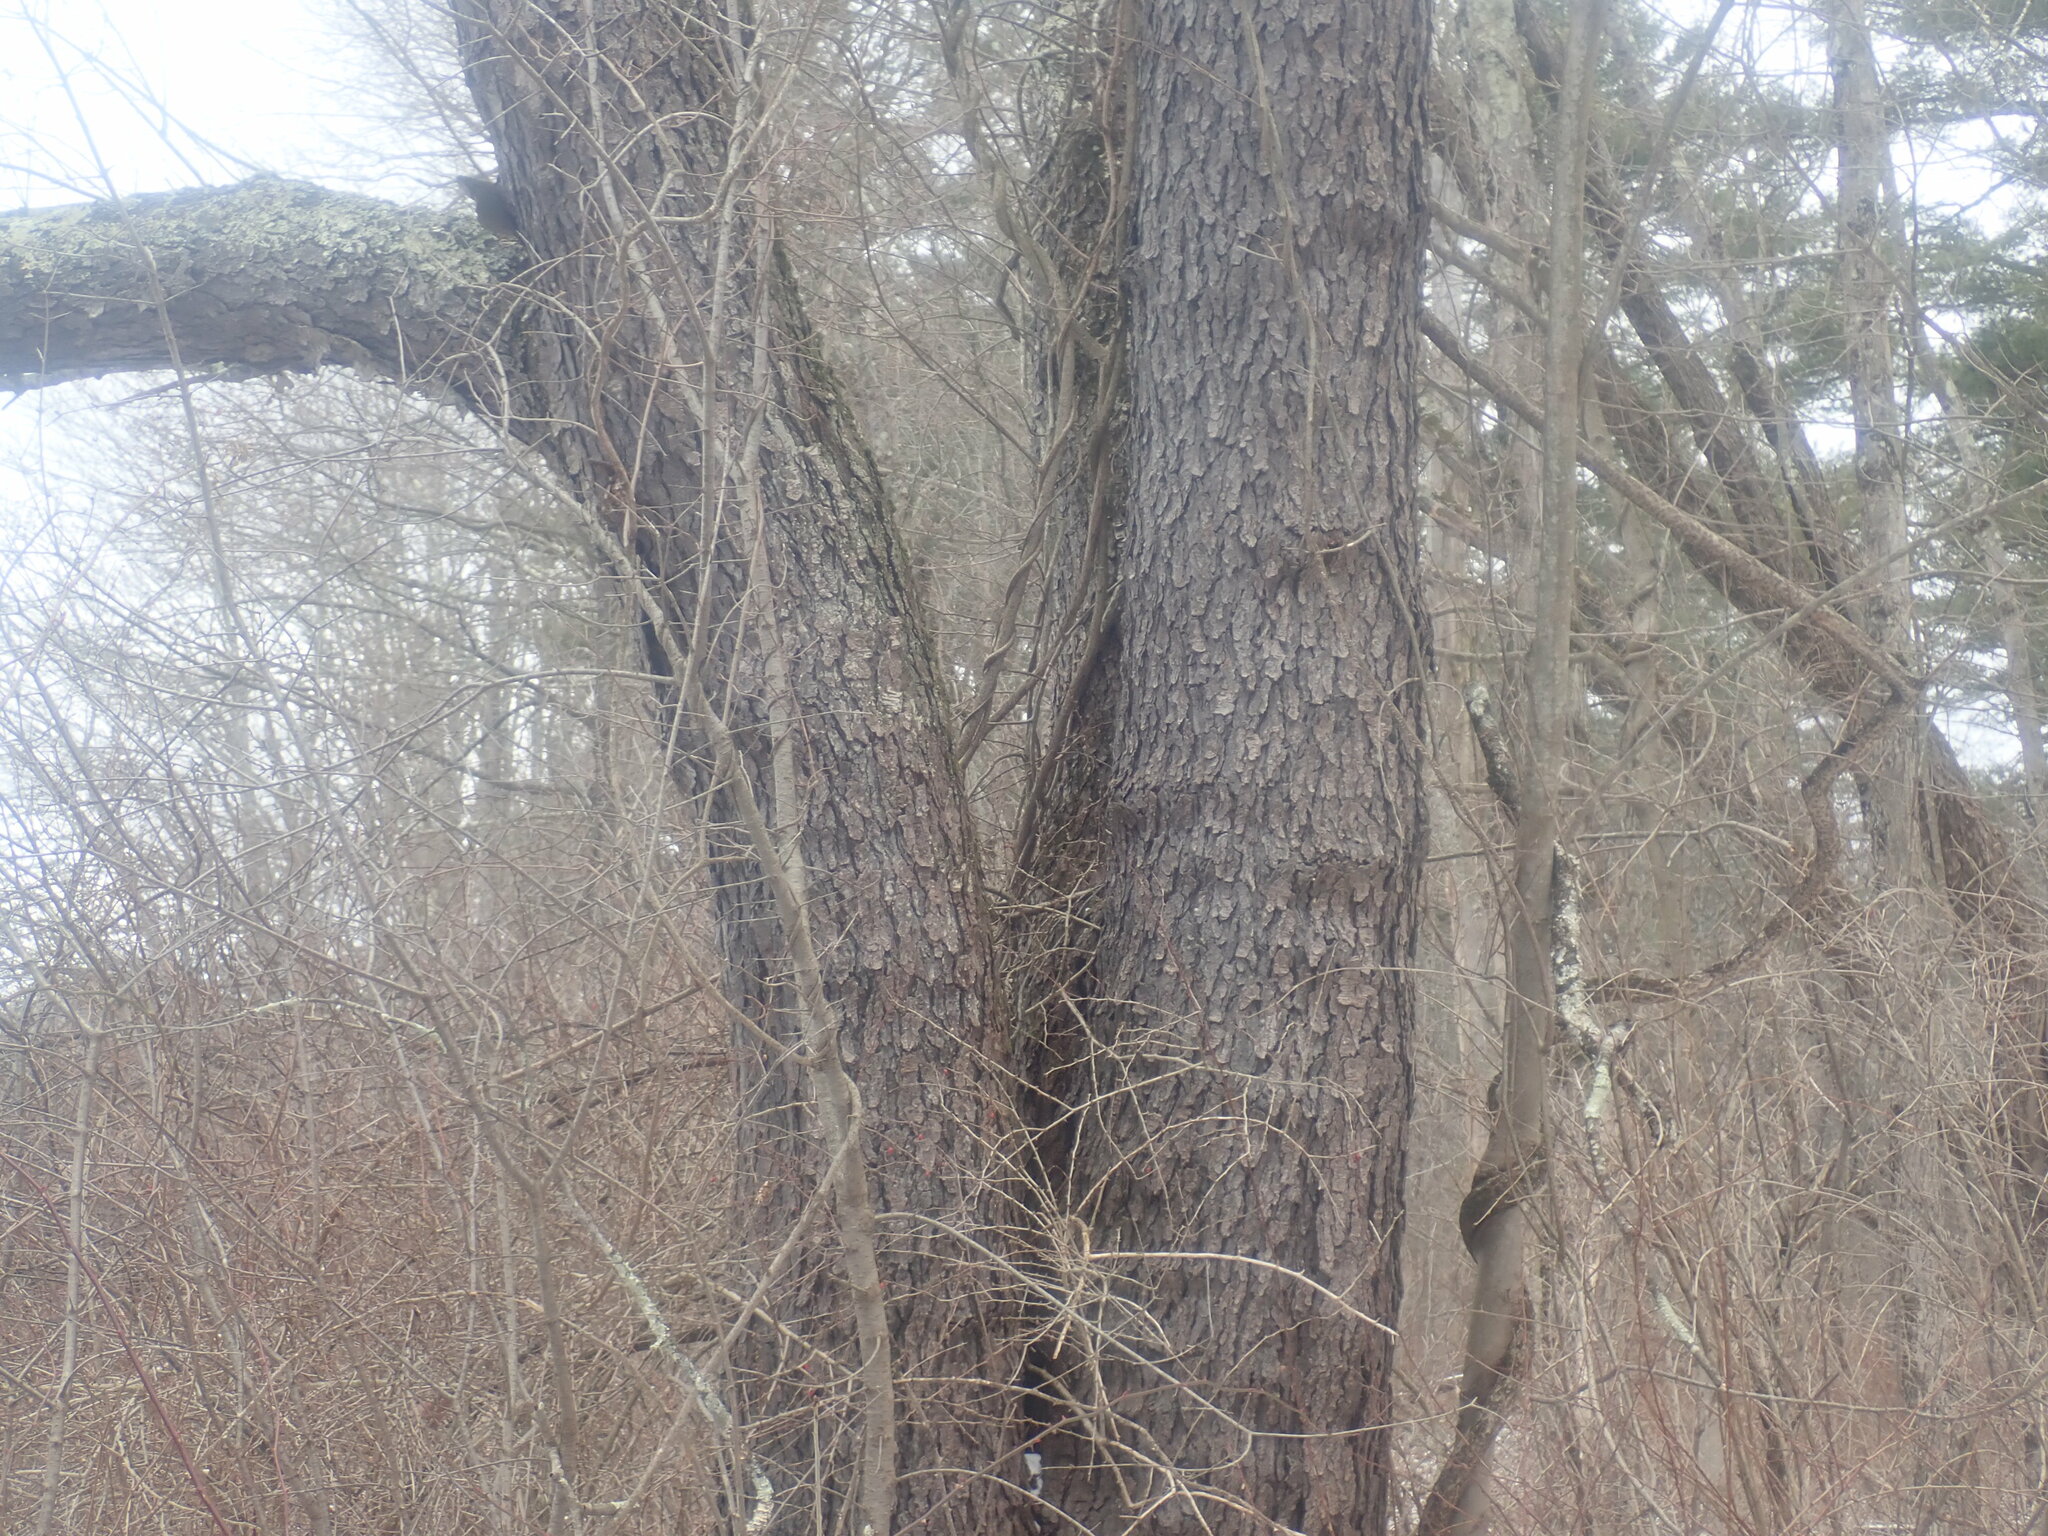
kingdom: Plantae
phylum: Tracheophyta
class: Magnoliopsida
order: Rosales
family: Rosaceae
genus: Prunus
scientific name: Prunus serotina
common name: Black cherry
